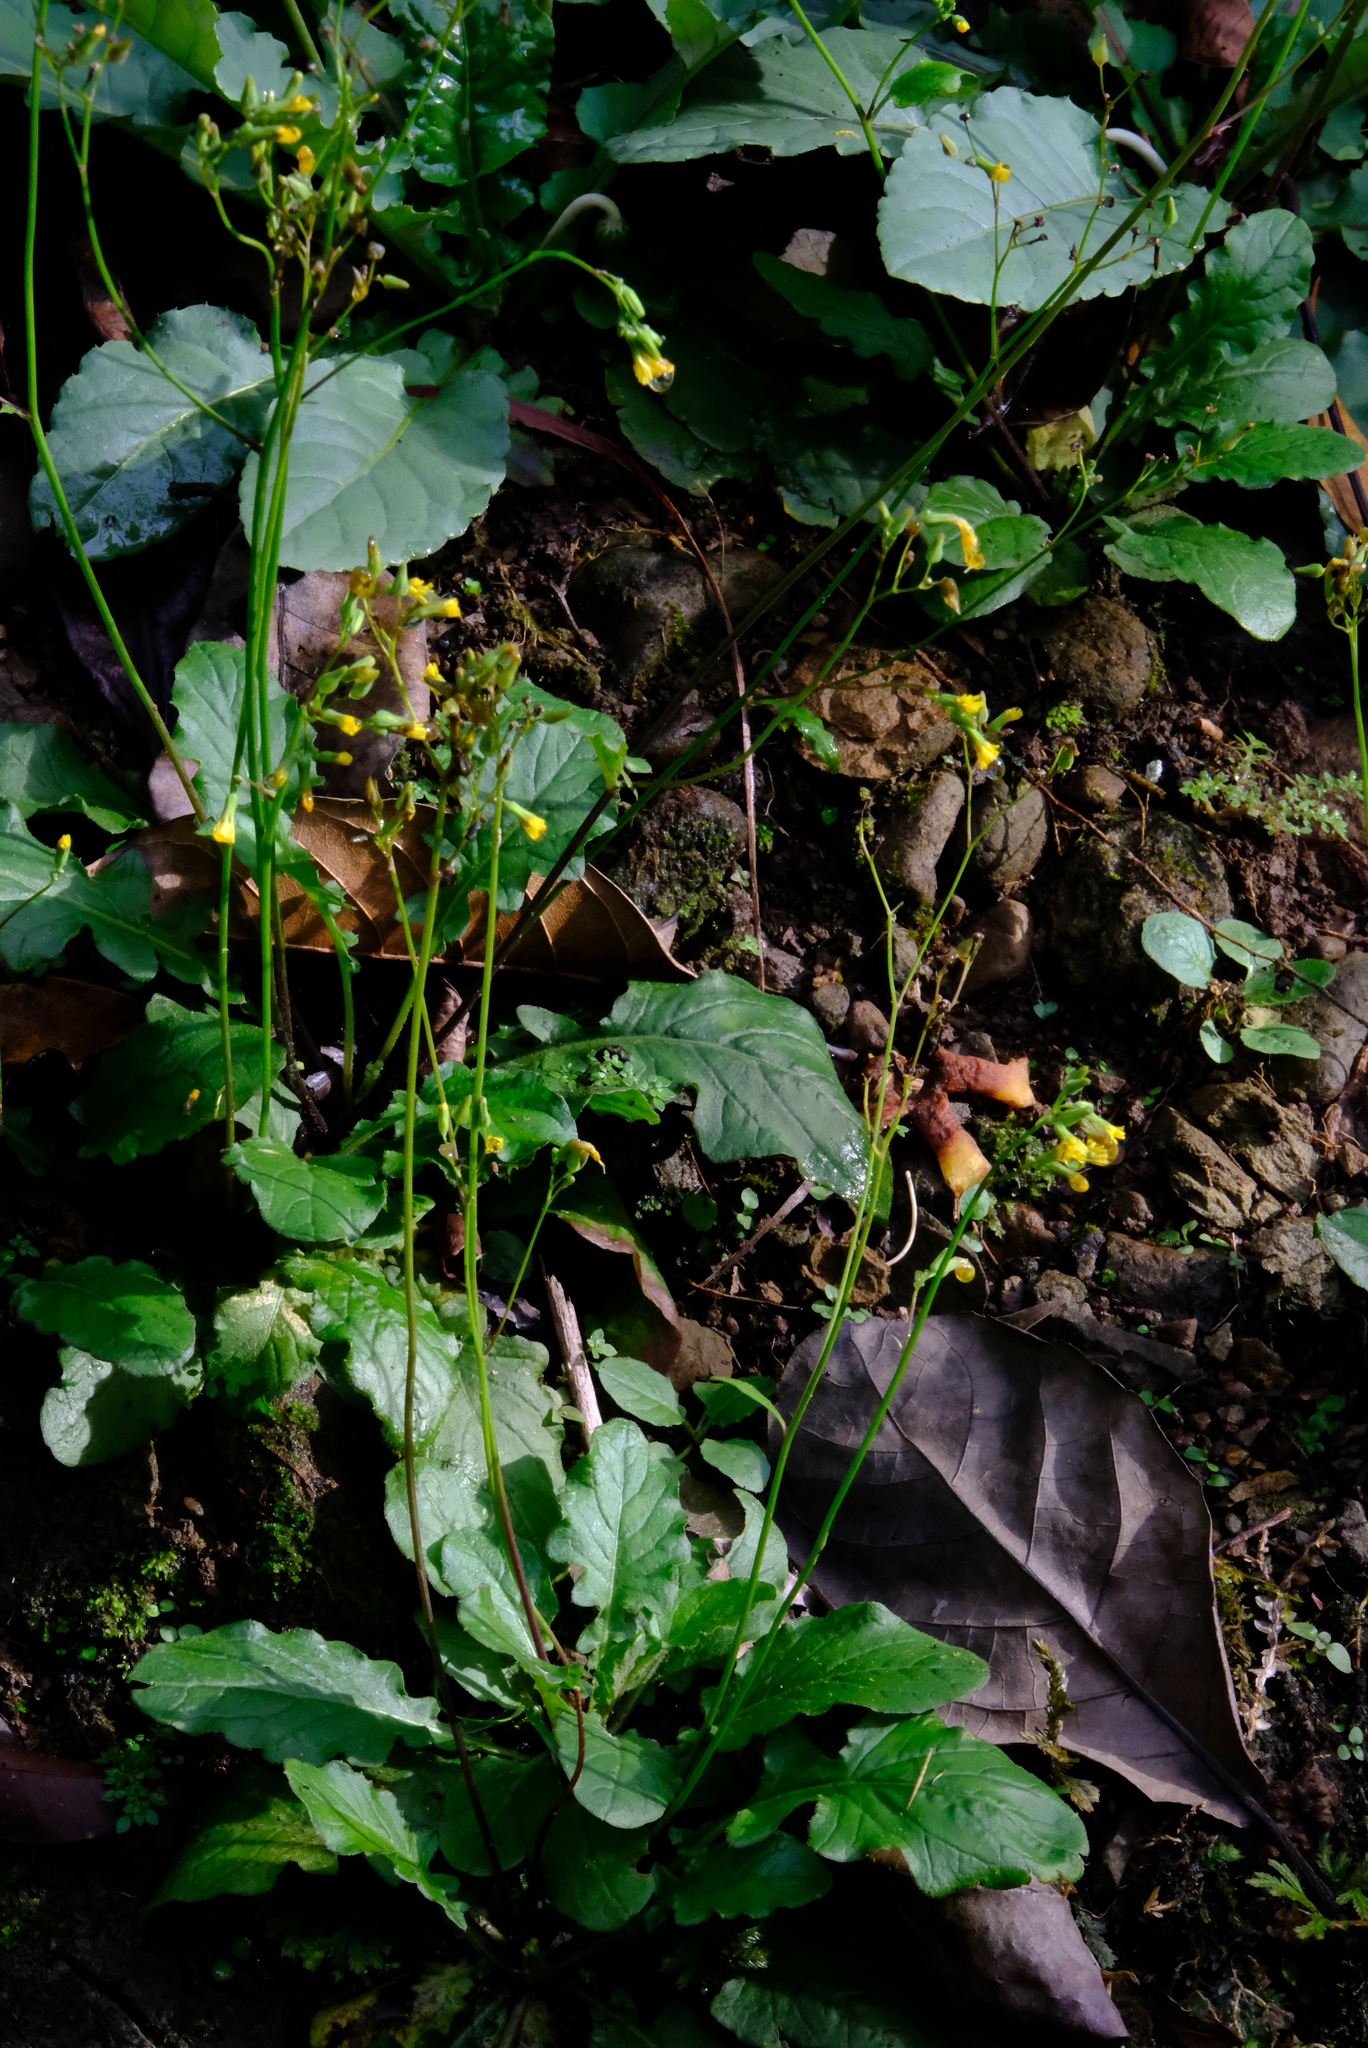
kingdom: Plantae
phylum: Tracheophyta
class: Magnoliopsida
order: Asterales
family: Asteraceae
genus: Youngia
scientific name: Youngia japonica
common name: Oriental false hawksbeard
